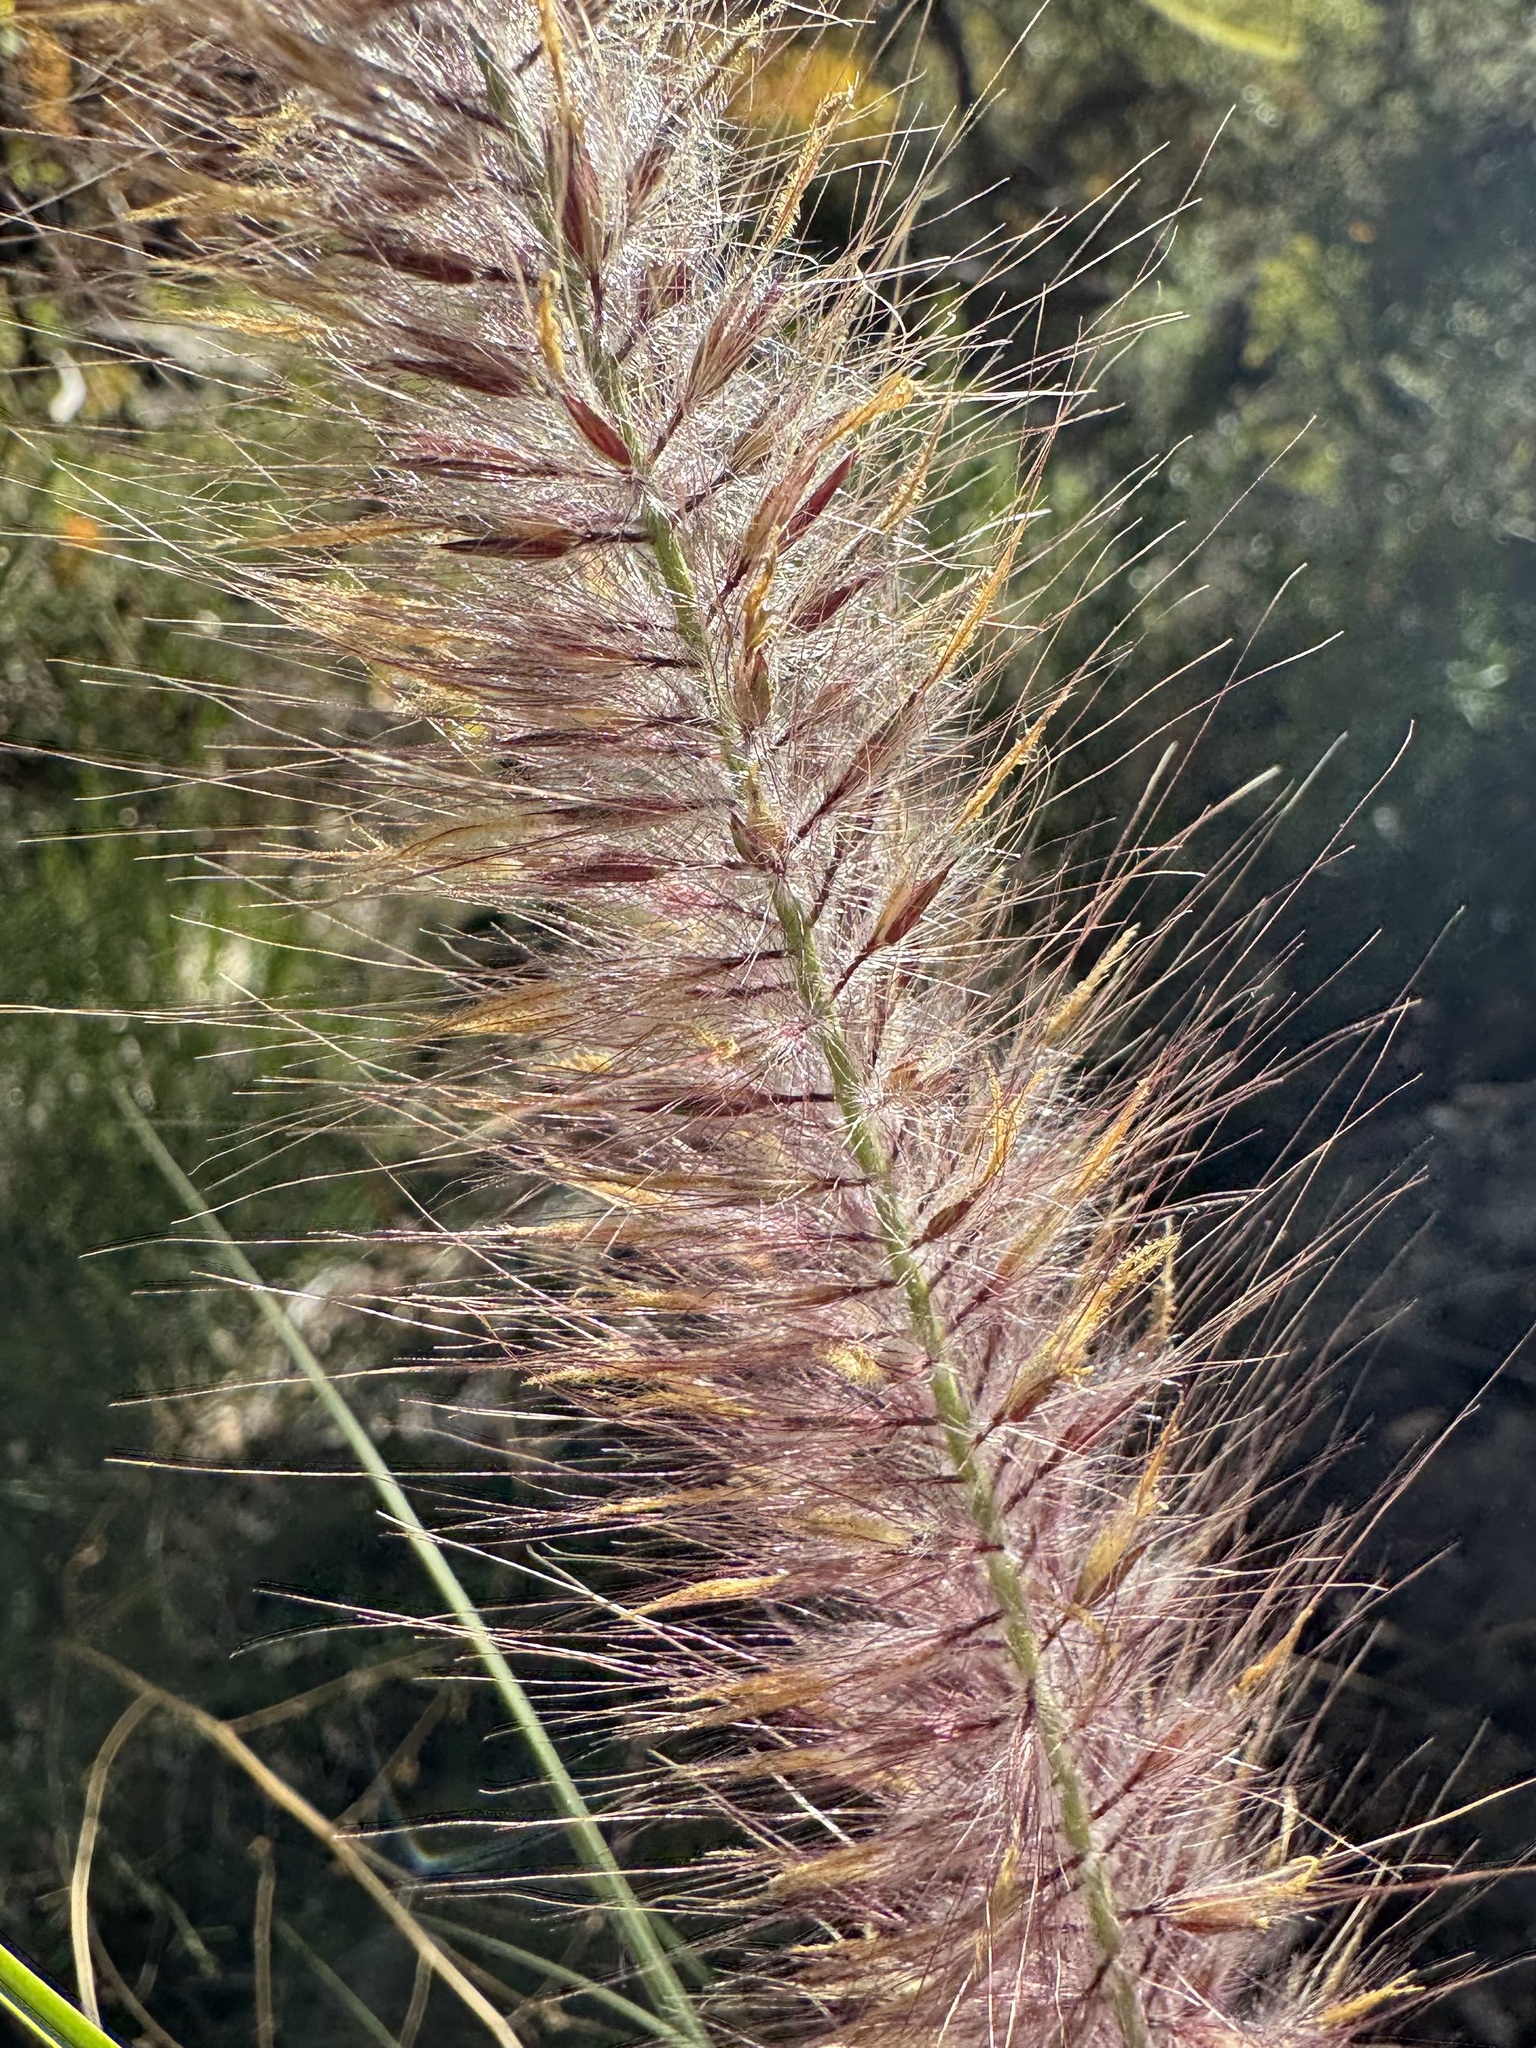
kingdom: Plantae
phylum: Tracheophyta
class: Liliopsida
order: Poales
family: Poaceae
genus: Cenchrus
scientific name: Cenchrus setaceus
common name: Crimson fountaingrass
